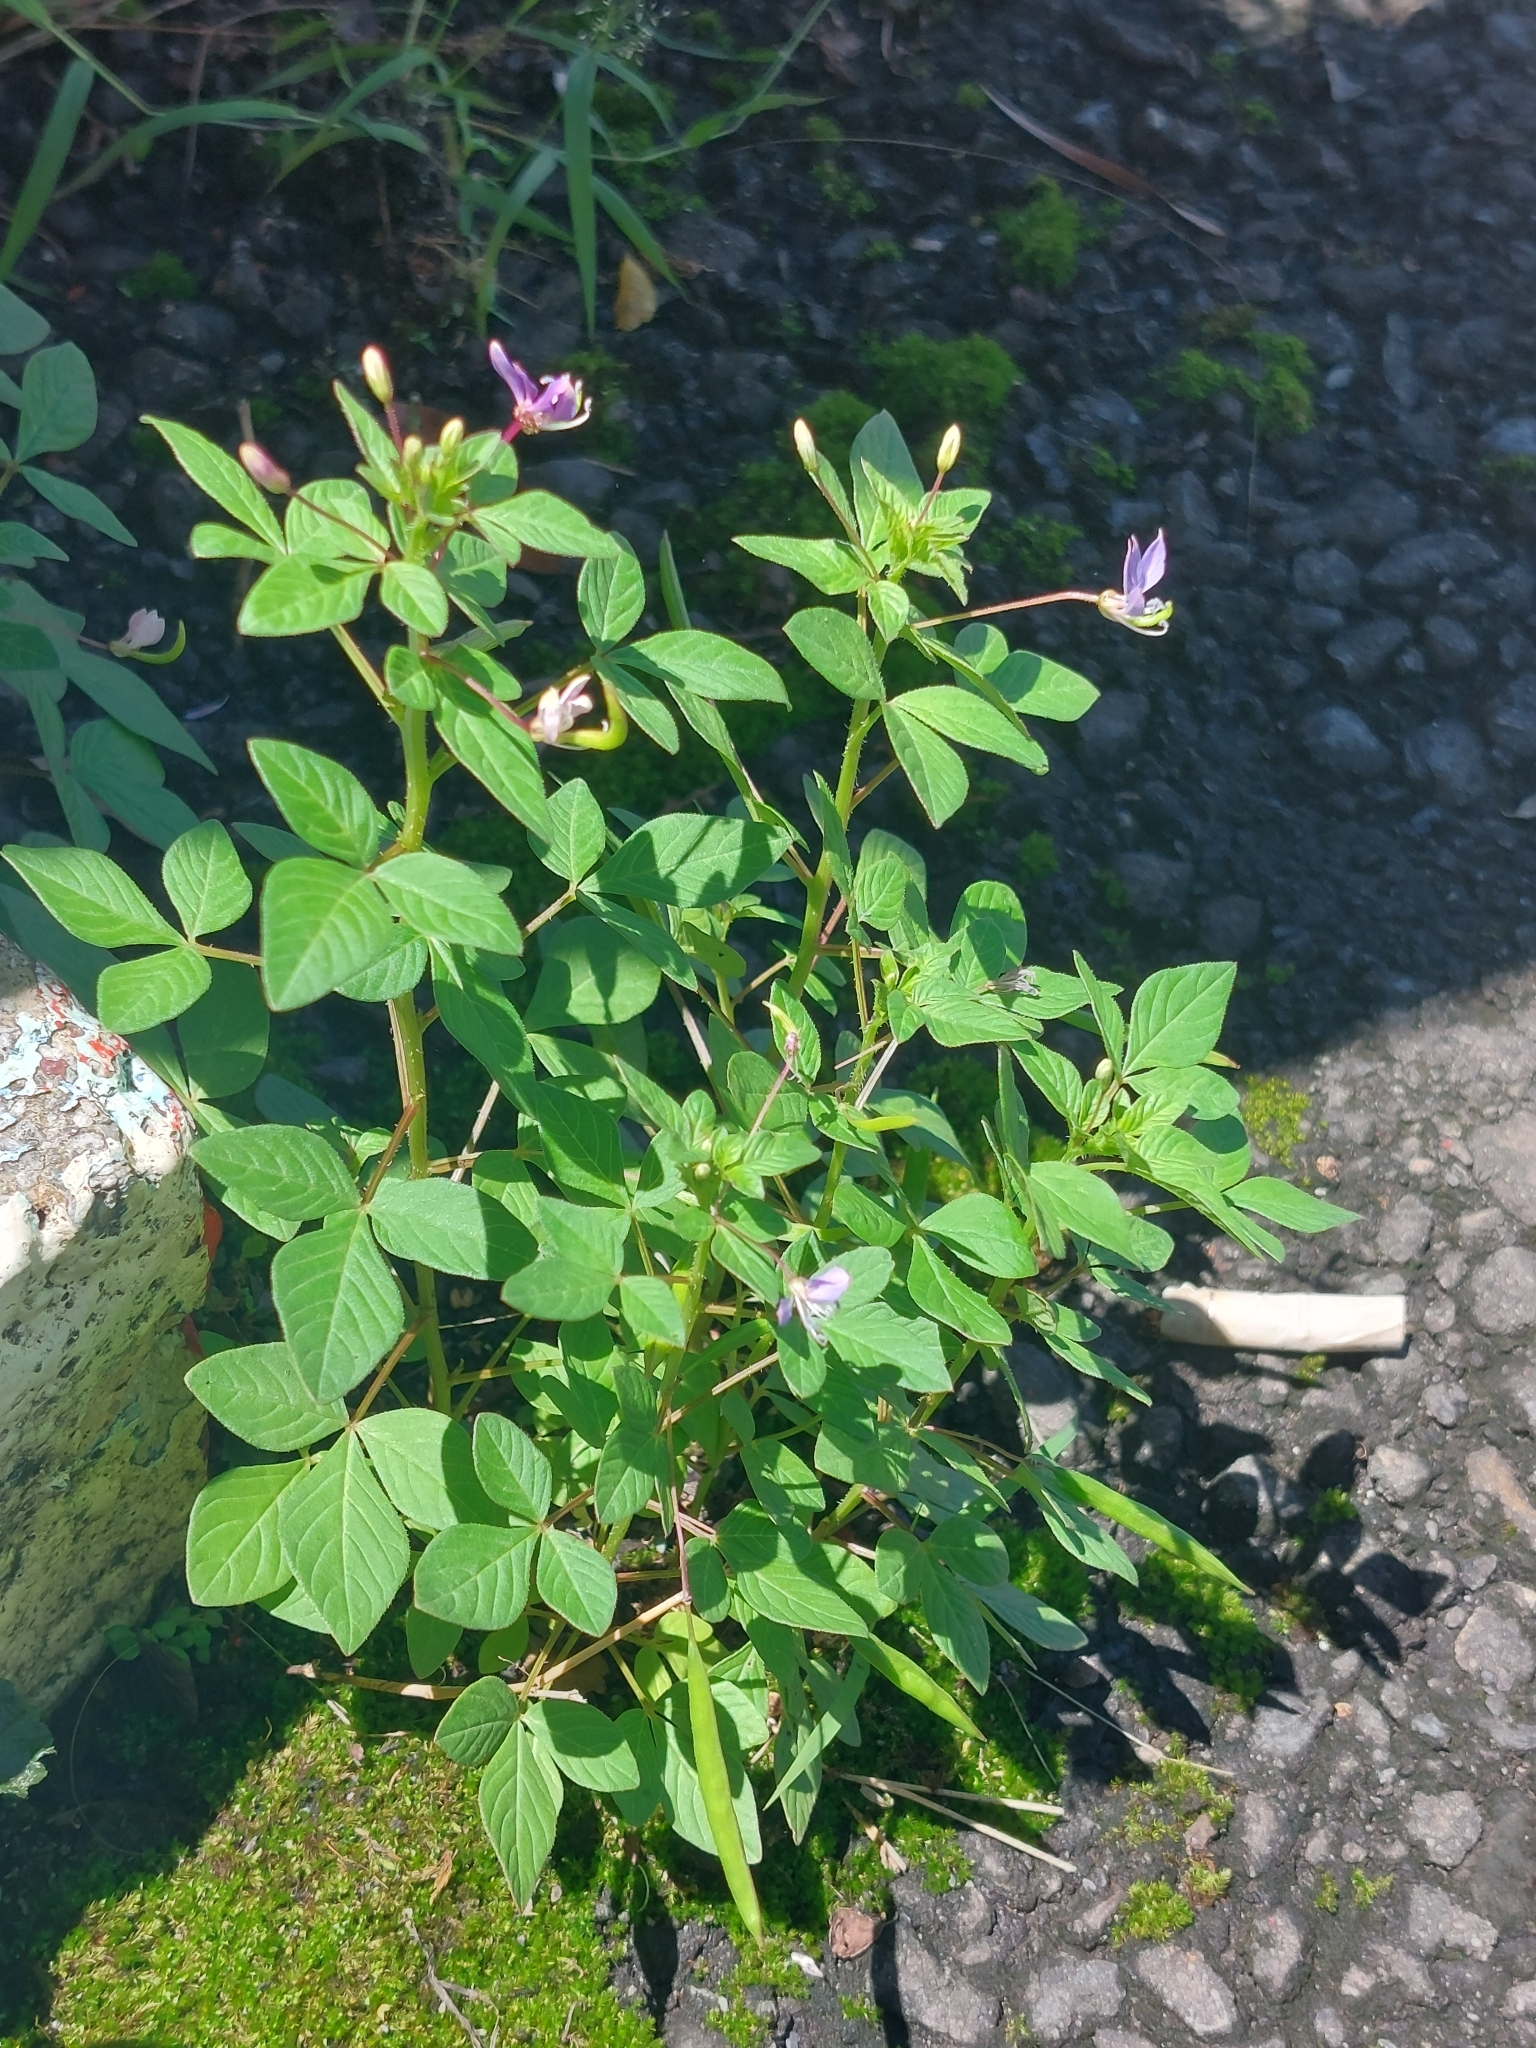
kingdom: Plantae
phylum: Tracheophyta
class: Magnoliopsida
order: Brassicales
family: Cleomaceae
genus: Sieruela
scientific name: Sieruela rutidosperma
